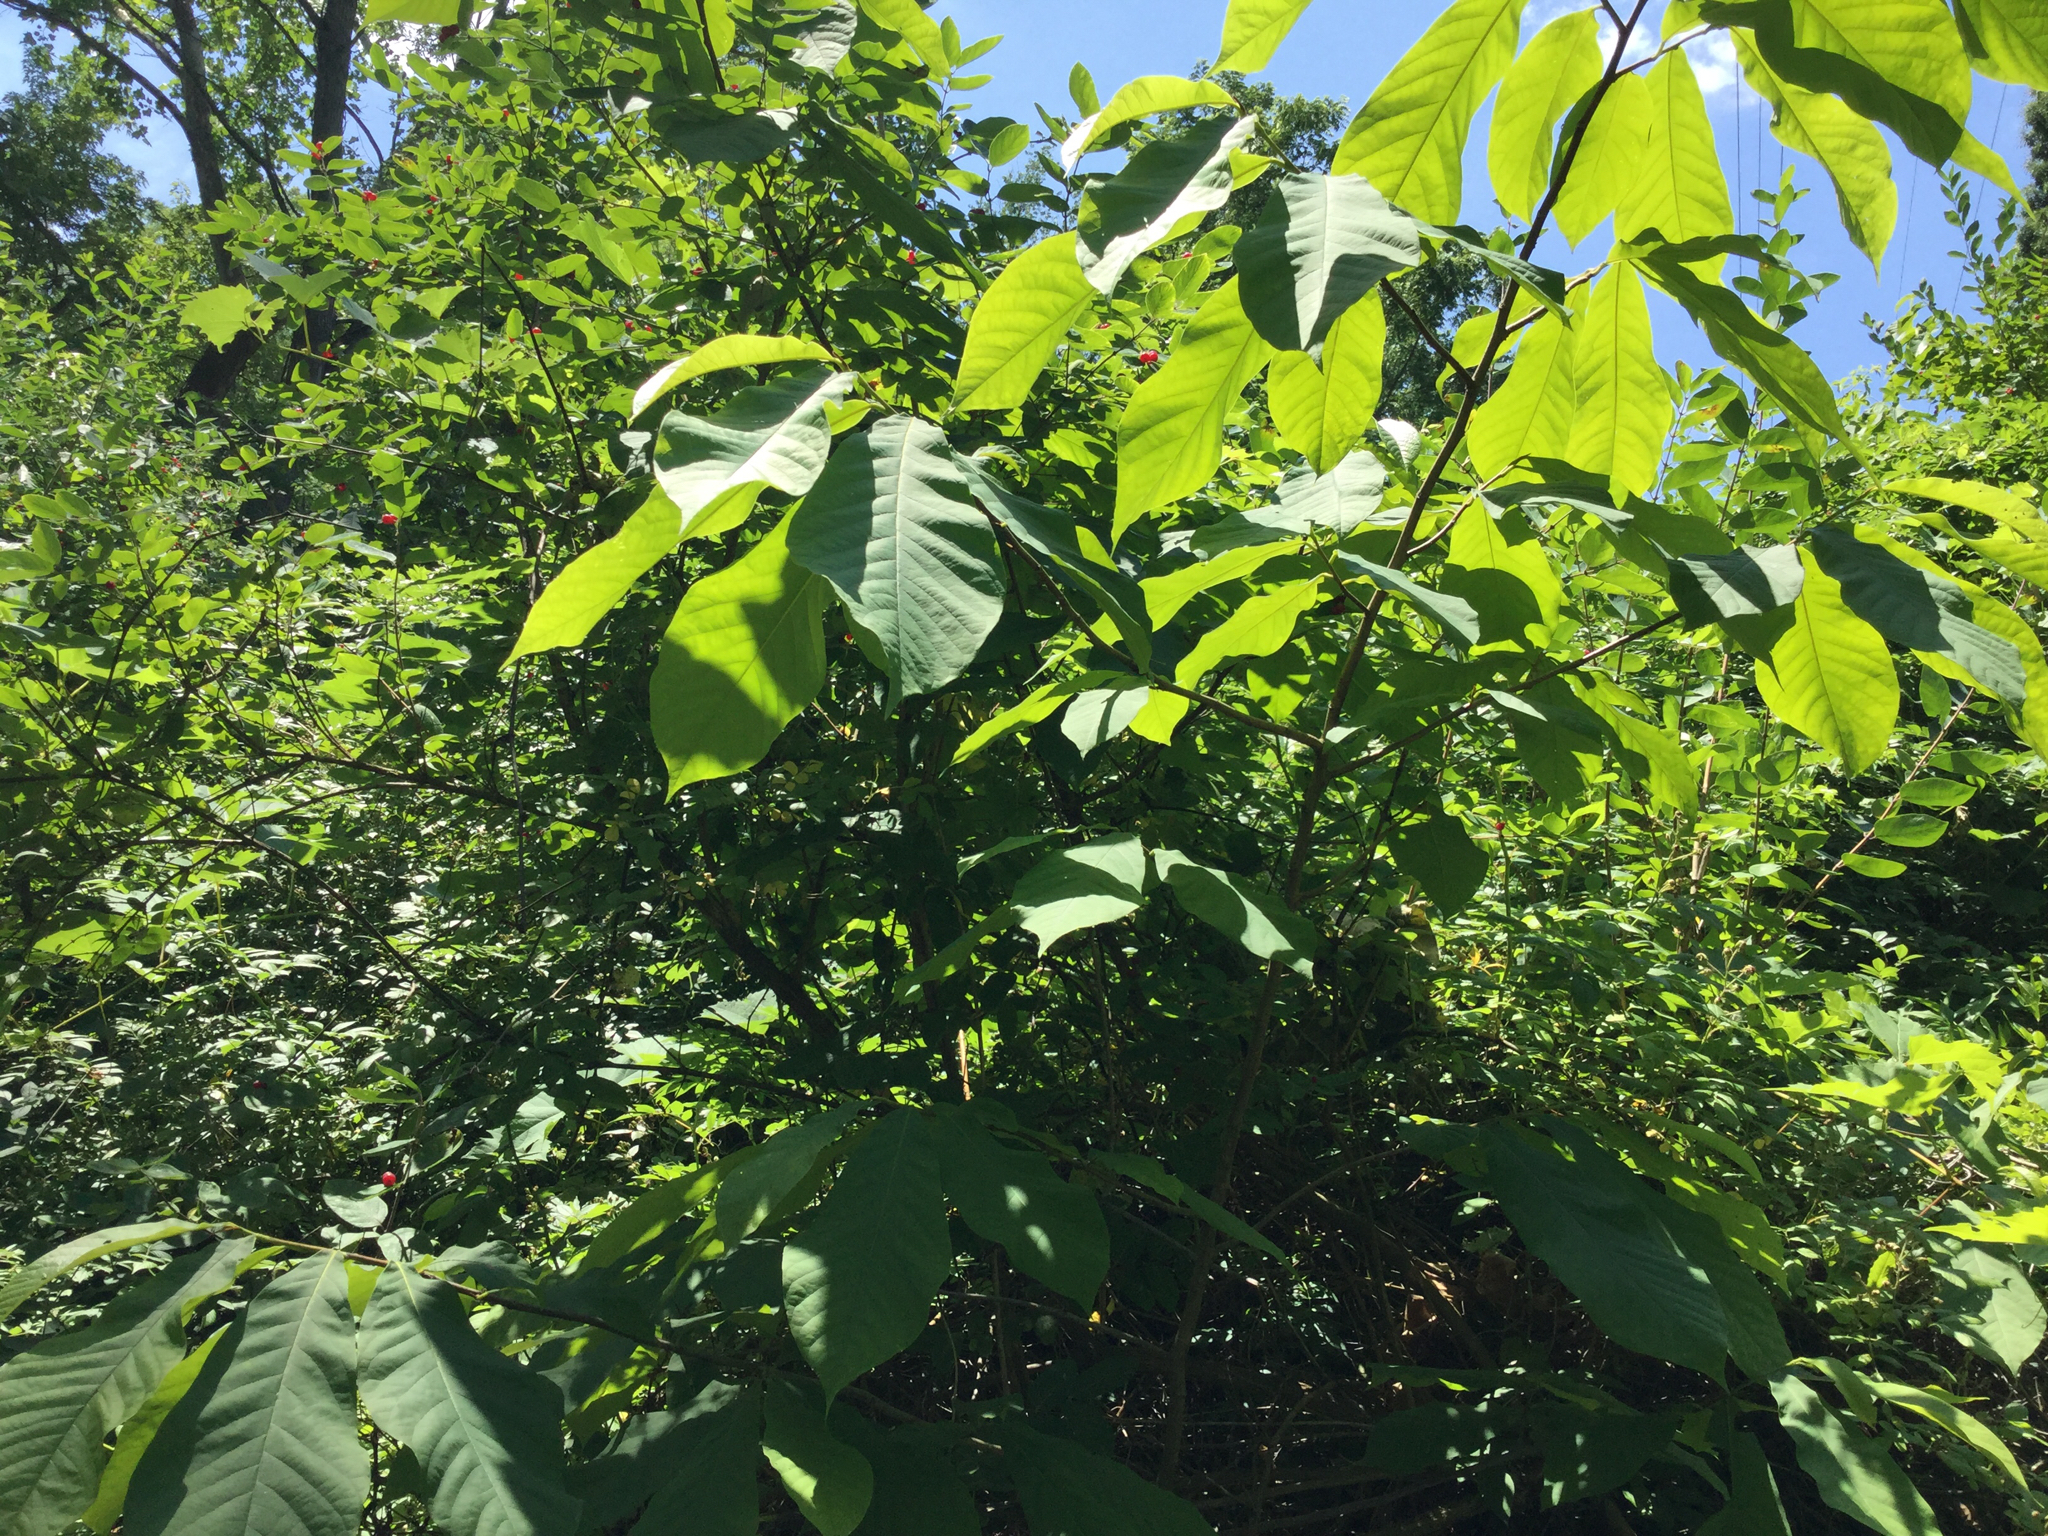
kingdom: Plantae
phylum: Tracheophyta
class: Magnoliopsida
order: Magnoliales
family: Annonaceae
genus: Asimina
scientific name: Asimina triloba
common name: Dog-banana
